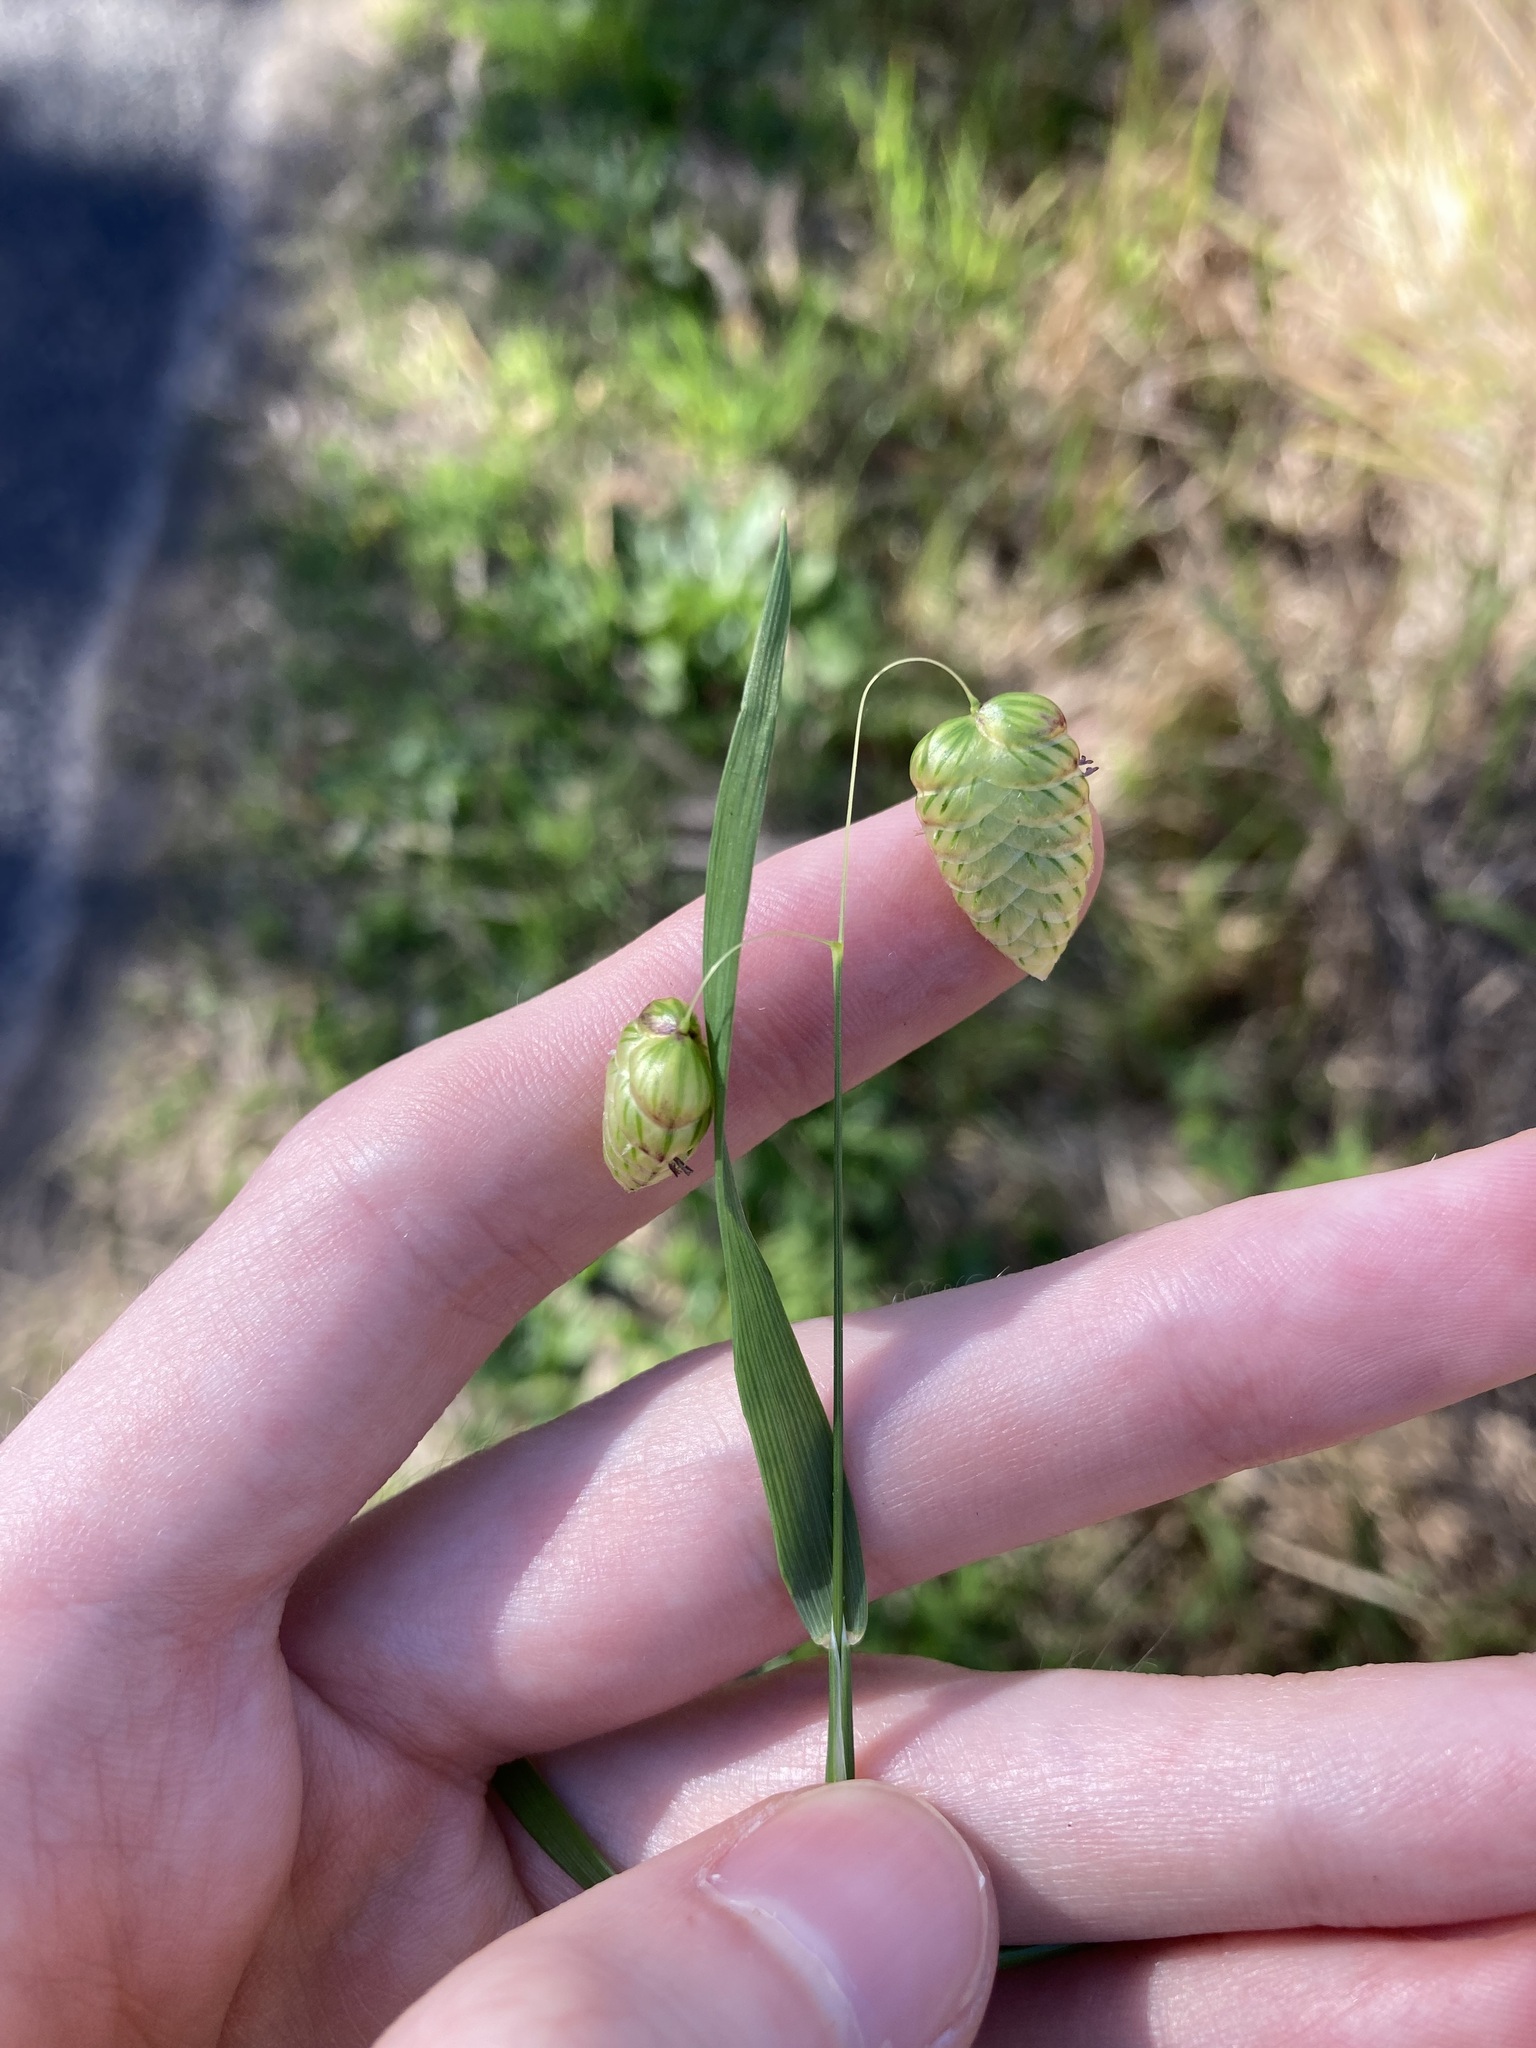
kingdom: Plantae
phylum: Tracheophyta
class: Liliopsida
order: Poales
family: Poaceae
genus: Briza
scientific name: Briza maxima
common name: Big quakinggrass
